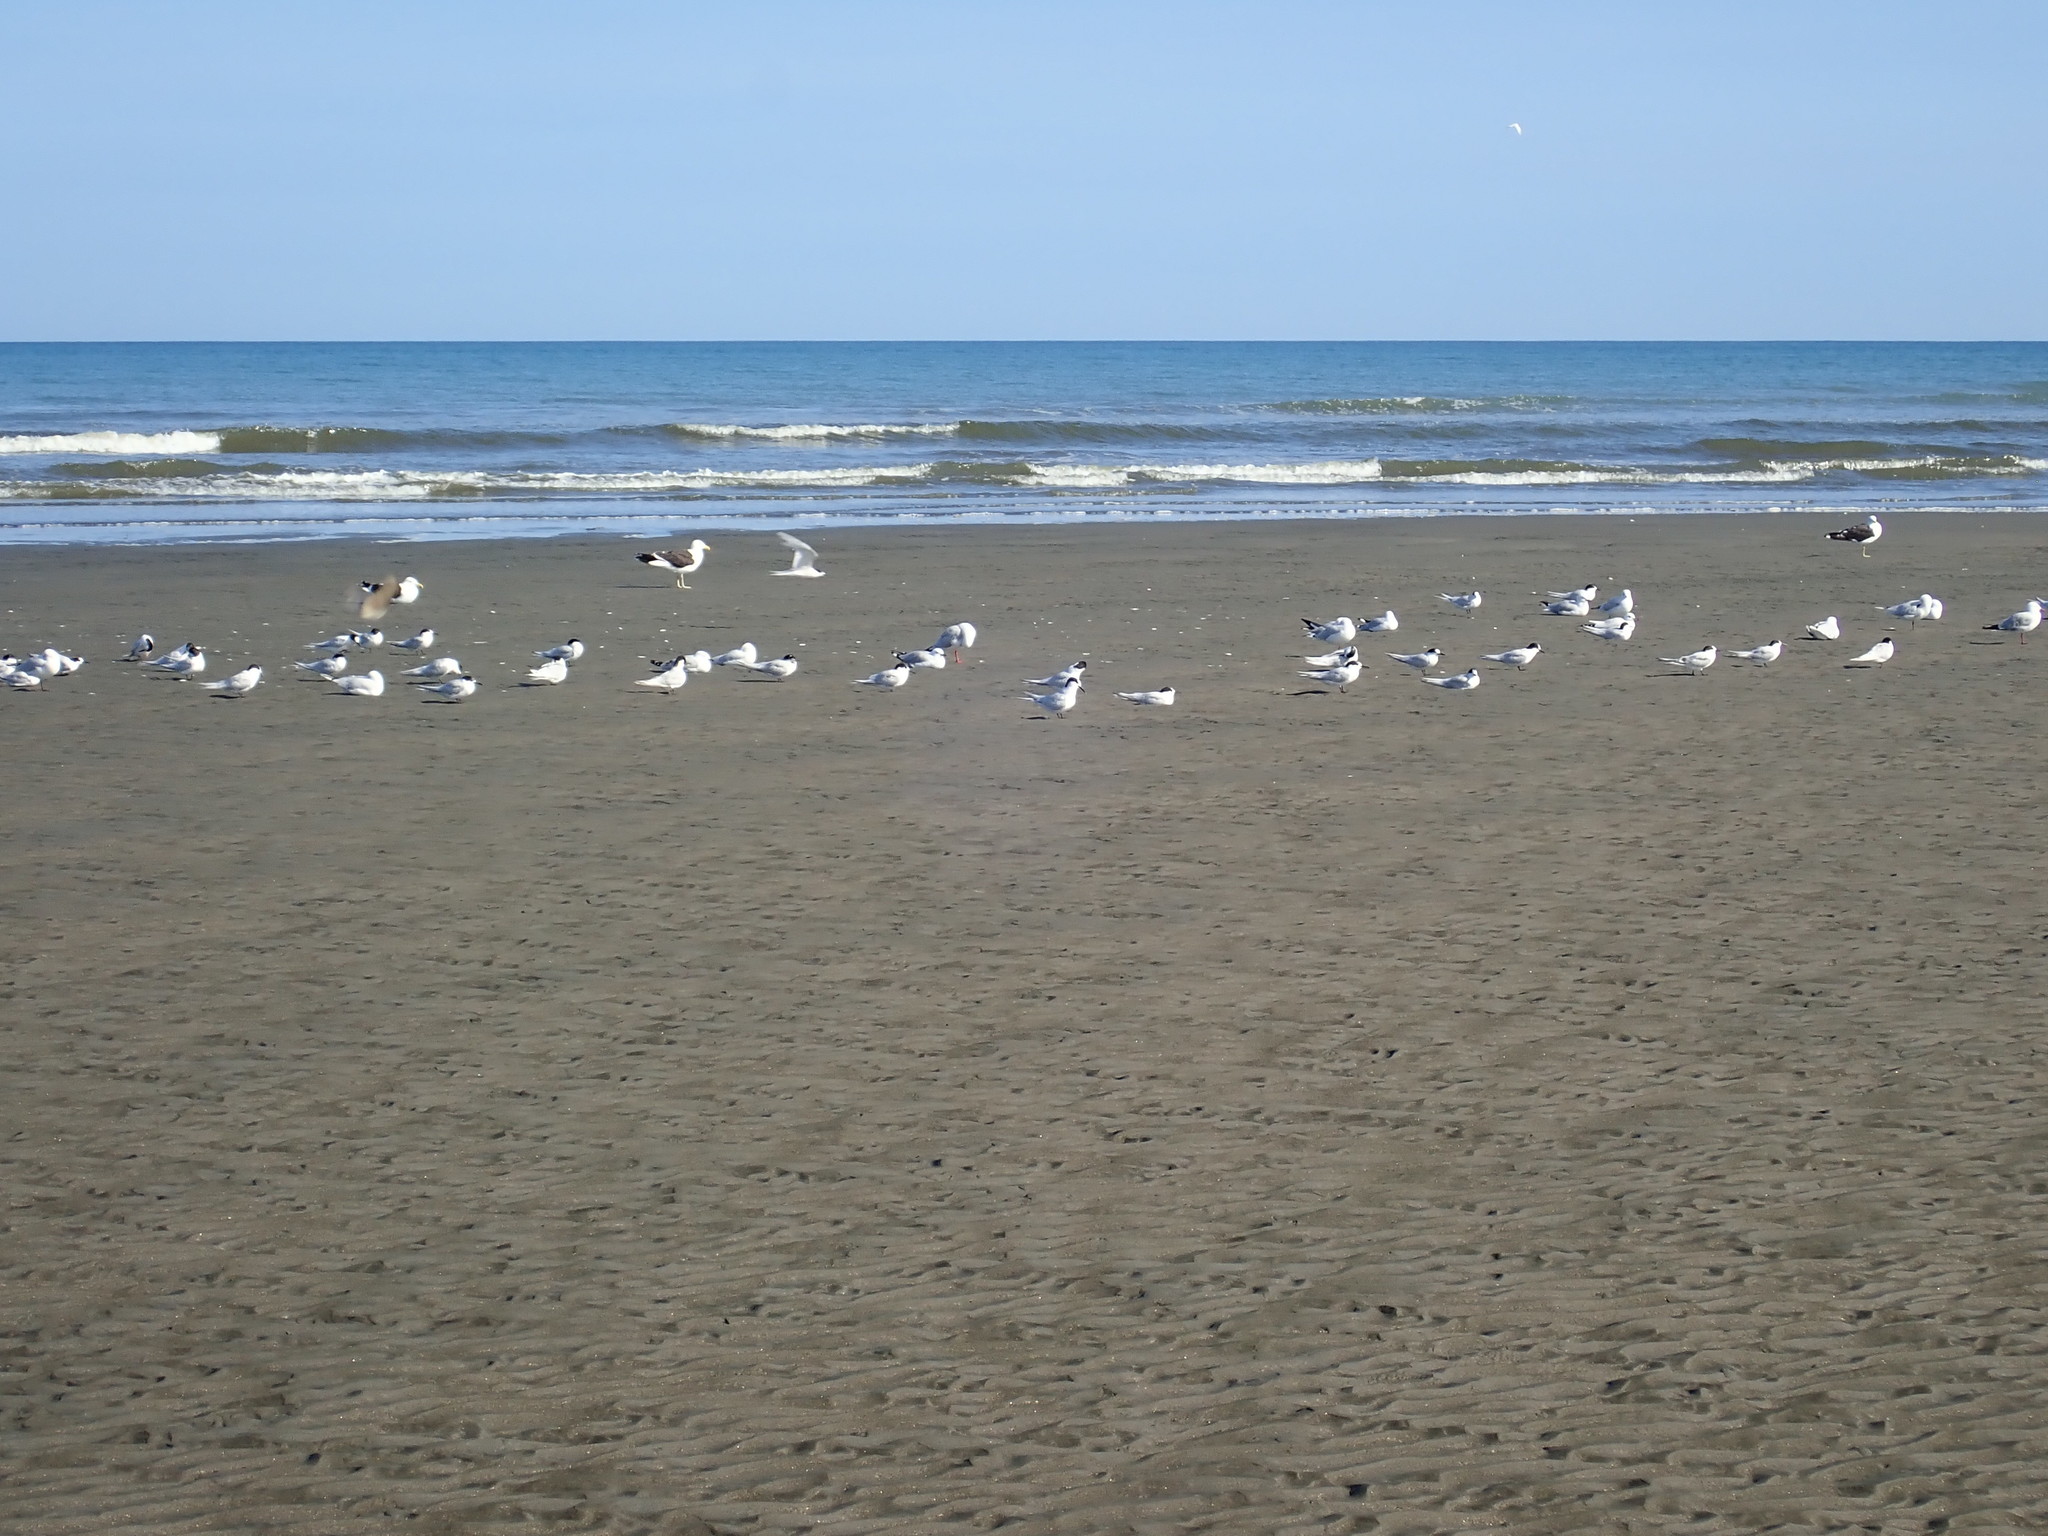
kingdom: Animalia
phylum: Chordata
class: Aves
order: Charadriiformes
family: Laridae
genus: Sterna
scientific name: Sterna striata
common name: White-fronted tern
